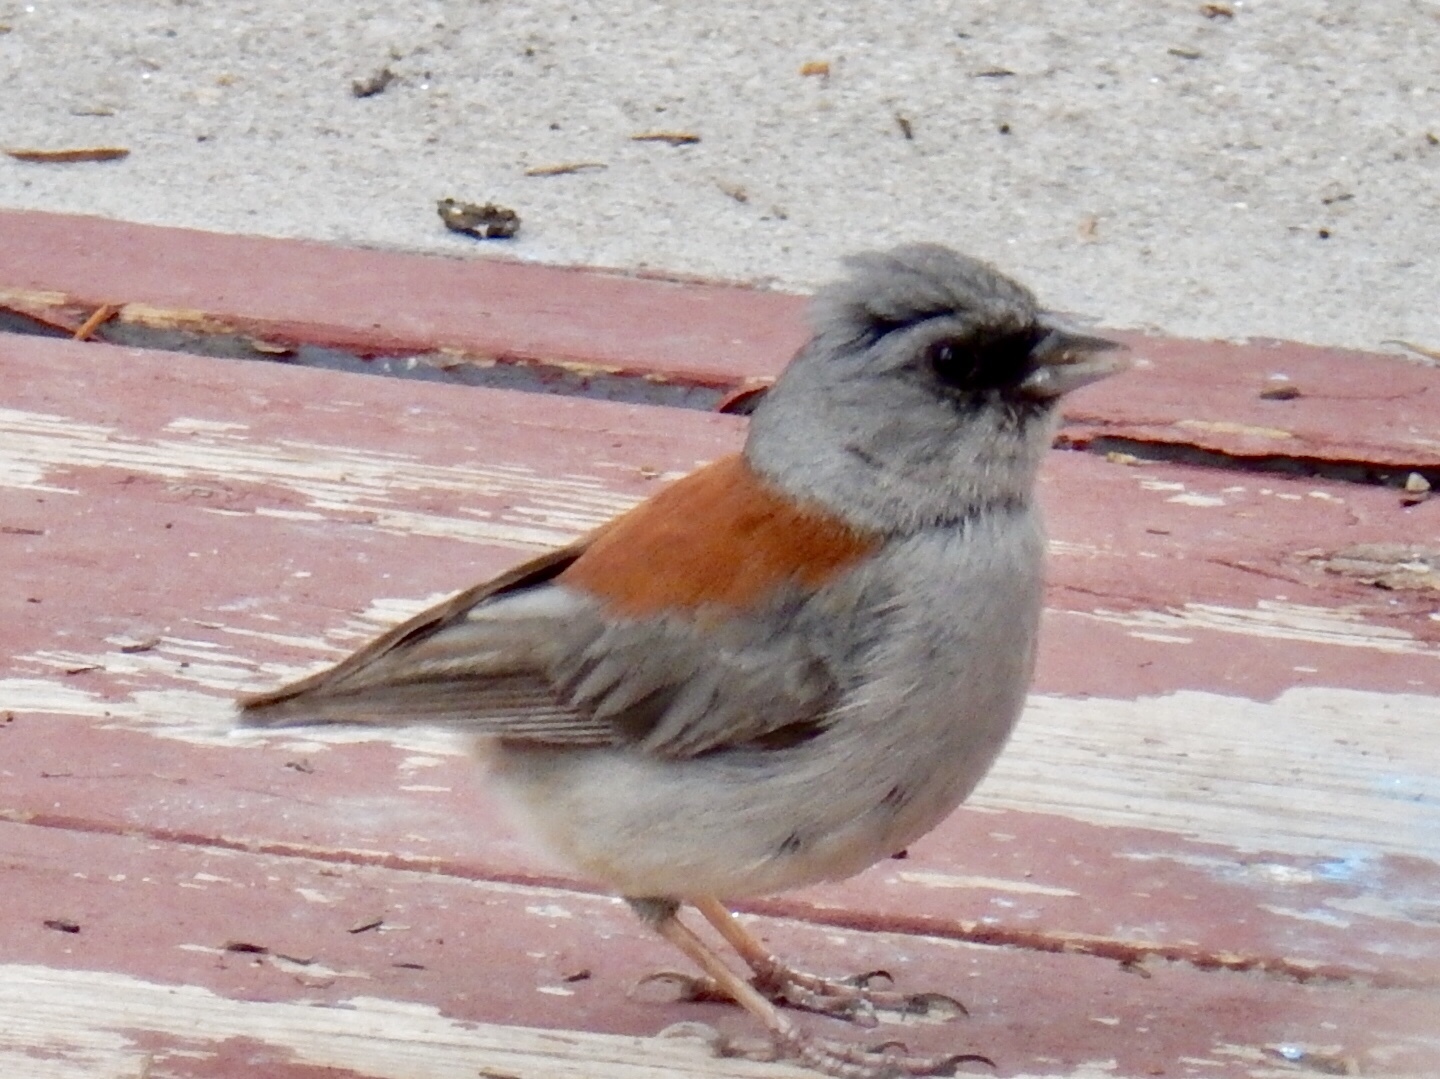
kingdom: Animalia
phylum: Chordata
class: Aves
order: Passeriformes
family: Passerellidae
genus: Junco
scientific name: Junco hyemalis
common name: Dark-eyed junco
